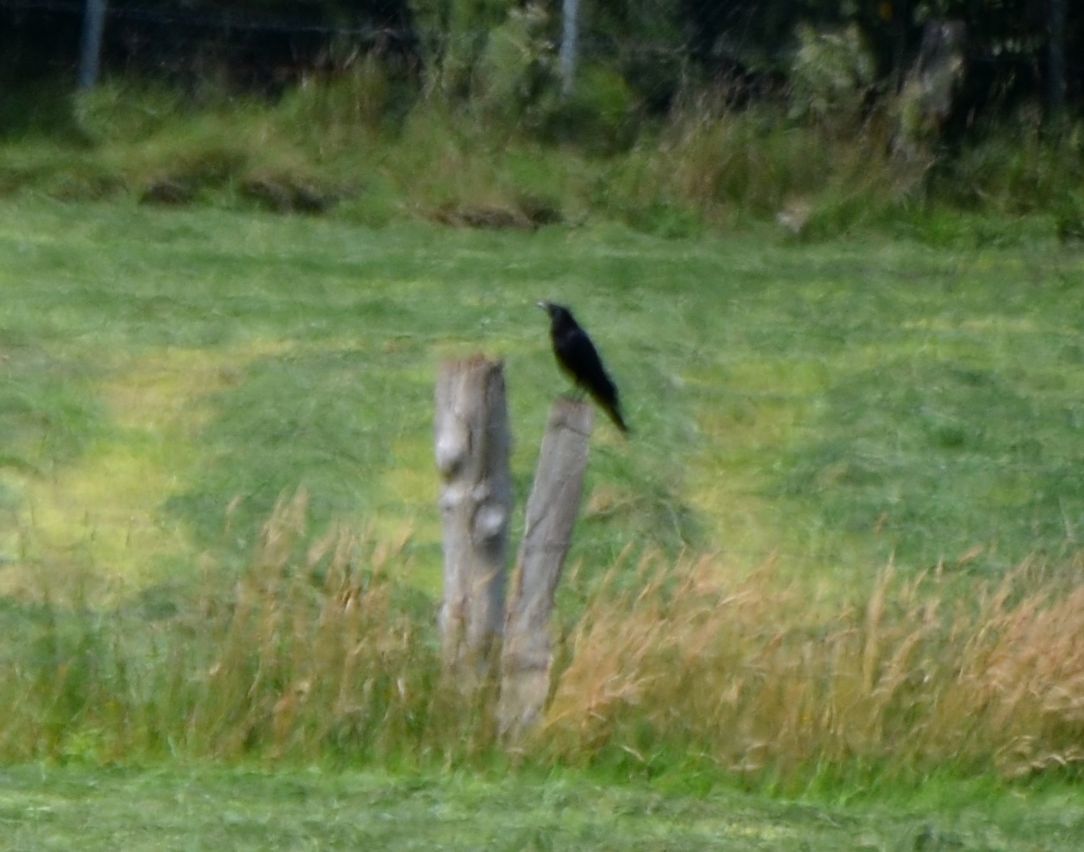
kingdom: Animalia
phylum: Chordata
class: Aves
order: Passeriformes
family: Corvidae
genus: Corvus
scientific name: Corvus corone
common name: Carrion crow
